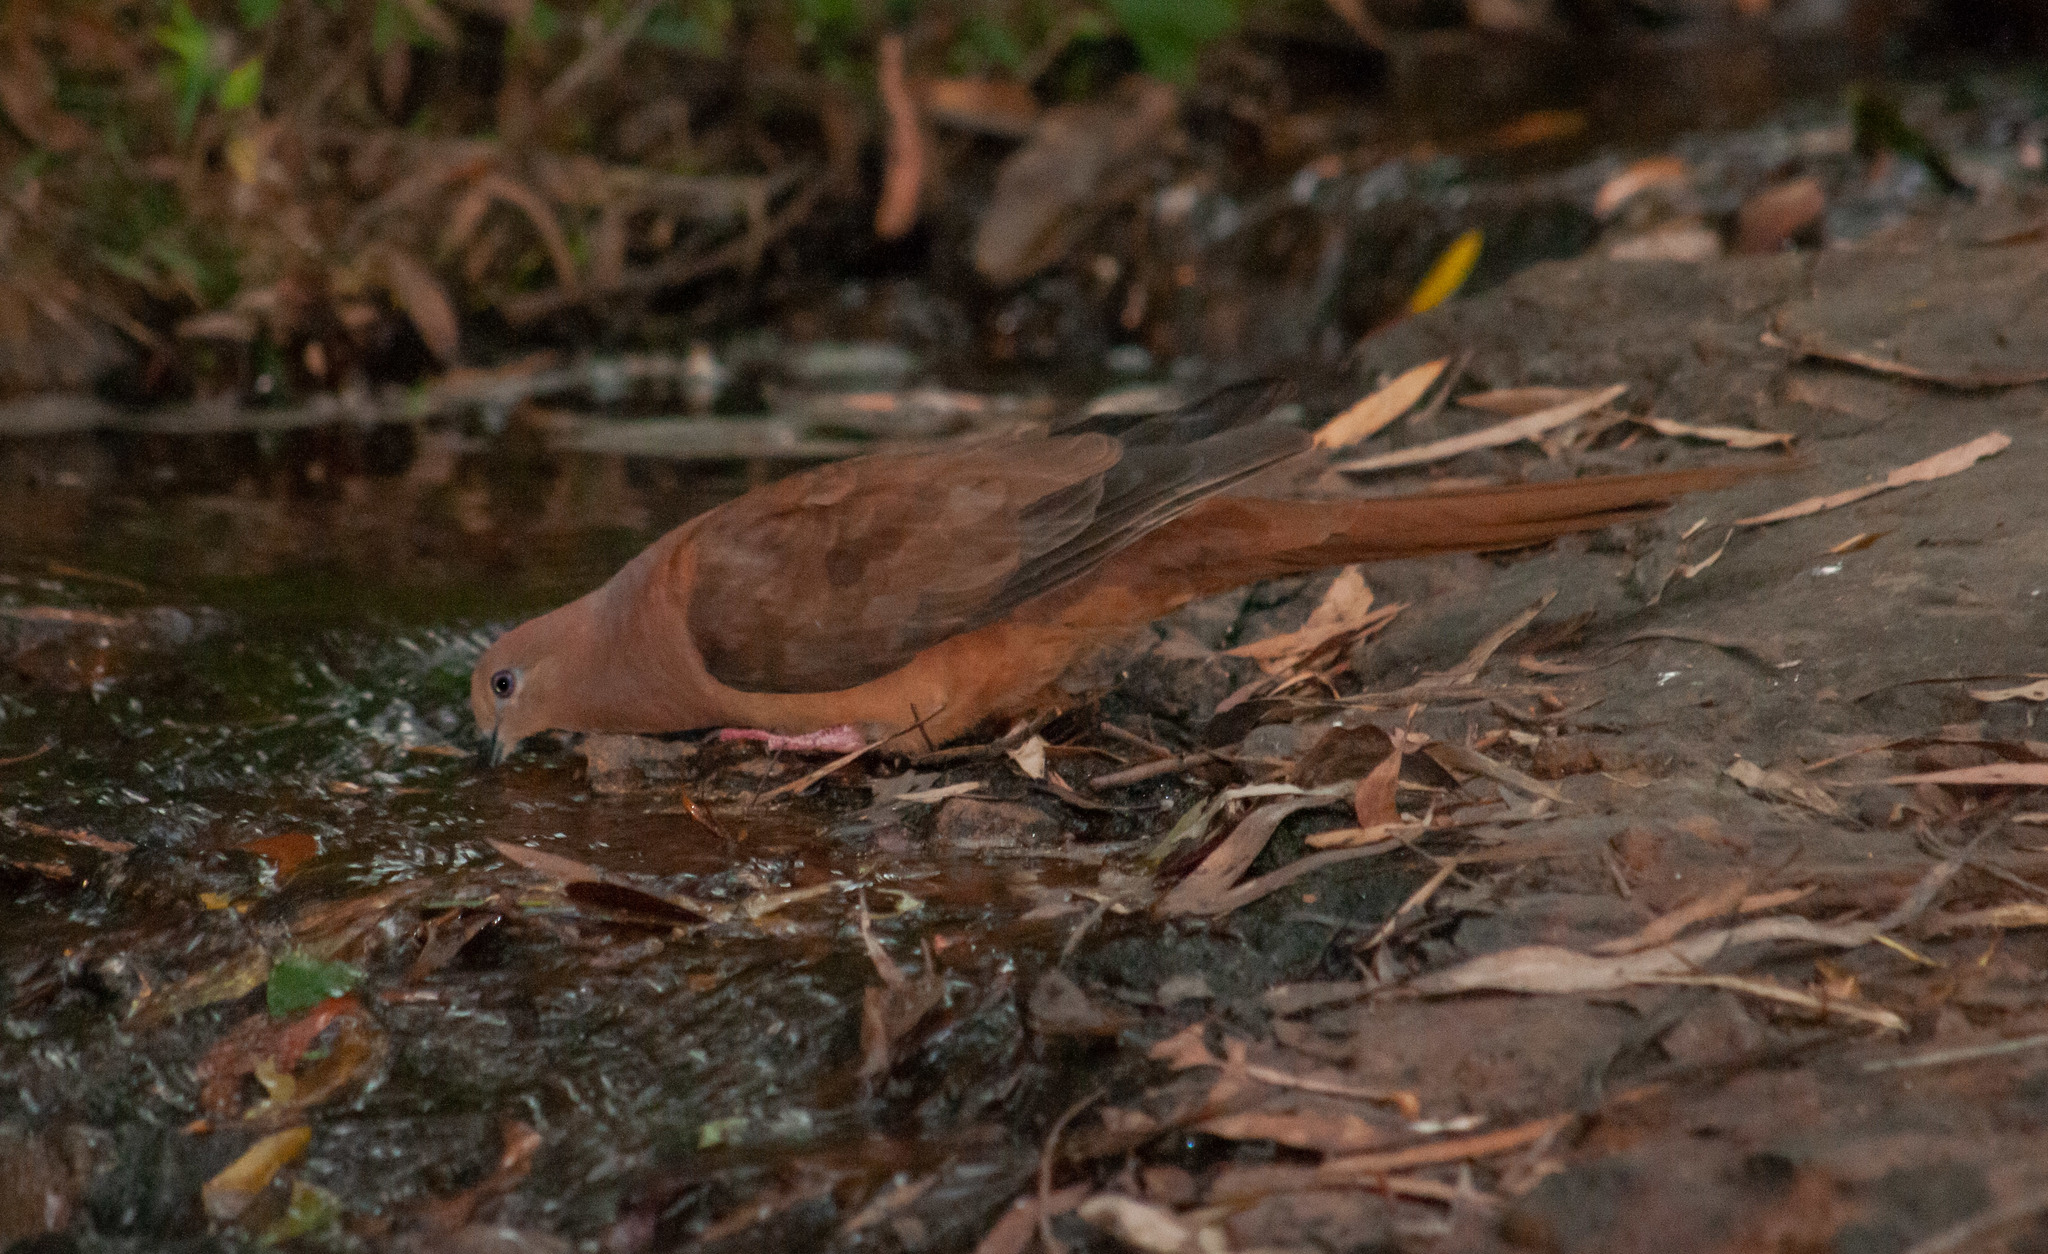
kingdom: Animalia
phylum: Chordata
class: Aves
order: Columbiformes
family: Columbidae
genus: Macropygia
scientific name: Macropygia phasianella
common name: Brown cuckoo-dove
